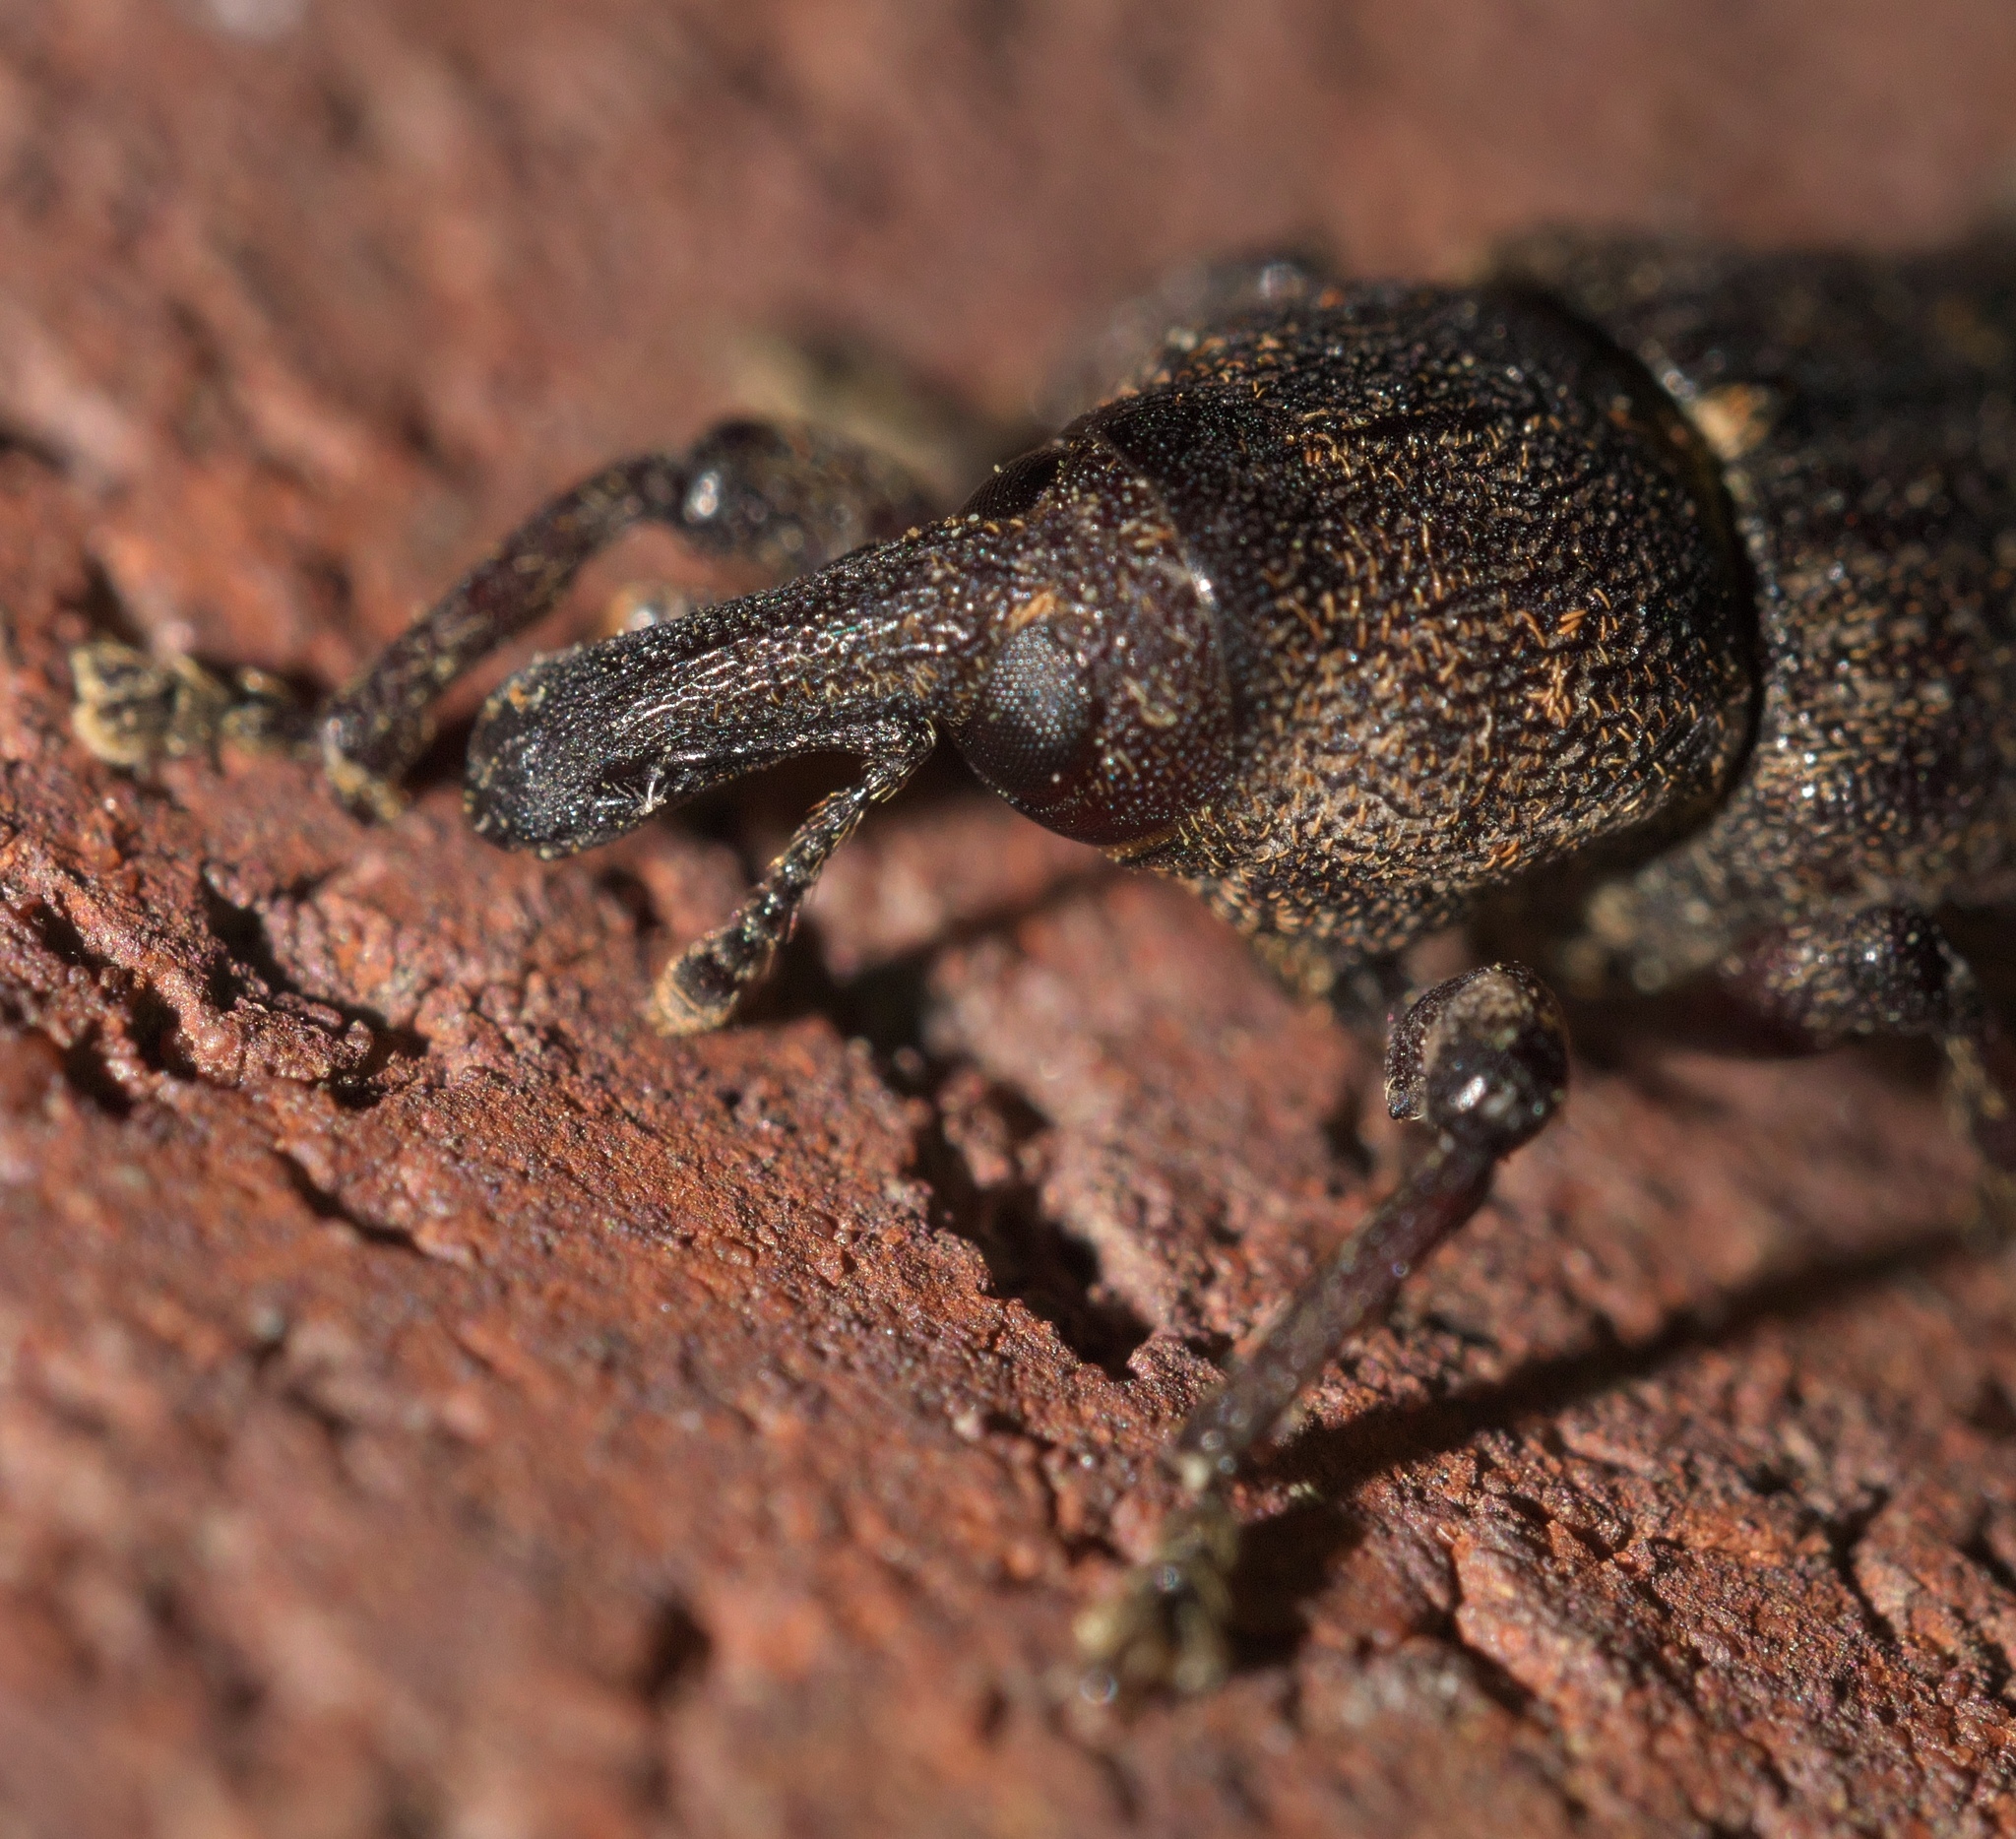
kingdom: Animalia
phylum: Arthropoda
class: Insecta
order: Coleoptera
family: Curculionidae
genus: Pachylobius
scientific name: Pachylobius picivorus
